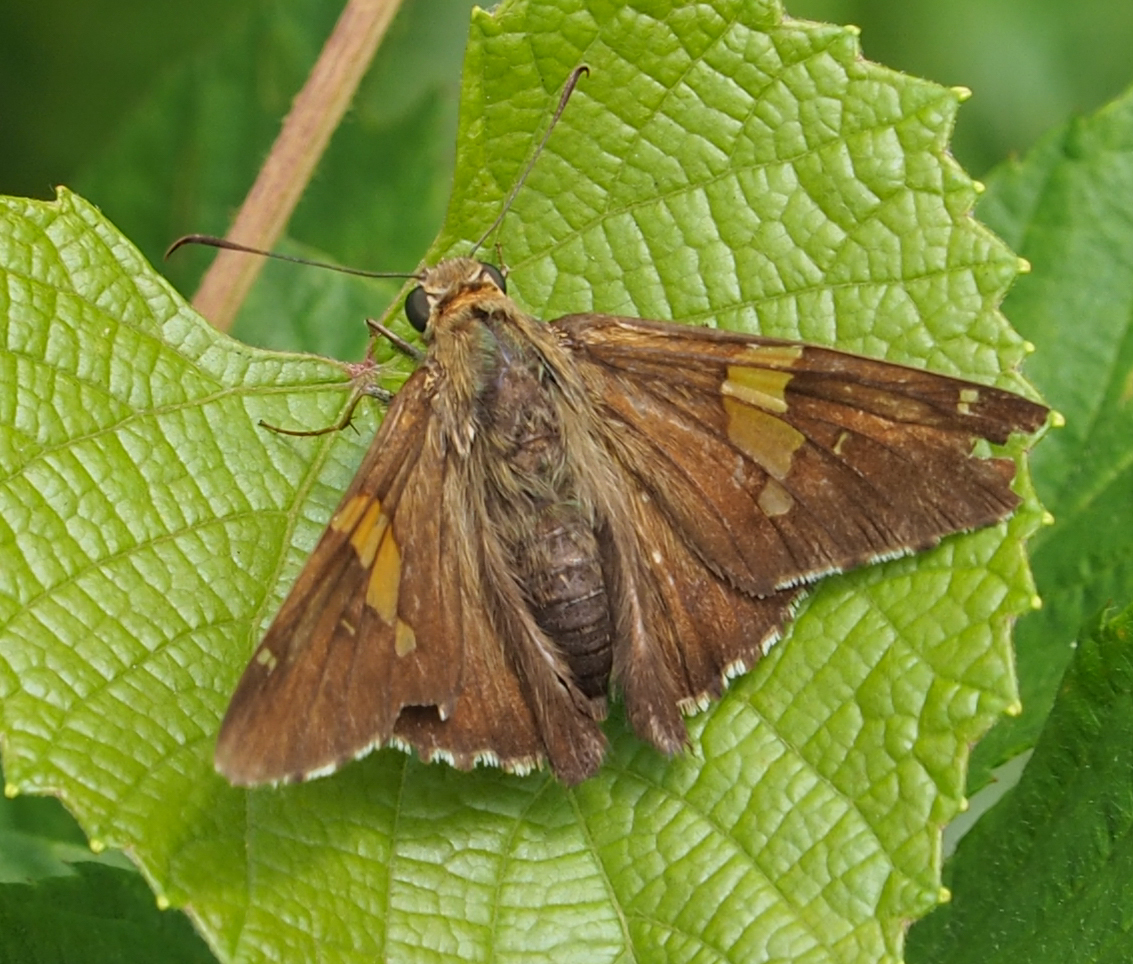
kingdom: Animalia
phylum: Arthropoda
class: Insecta
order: Lepidoptera
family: Hesperiidae
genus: Epargyreus
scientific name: Epargyreus clarus
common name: Silver-spotted skipper
